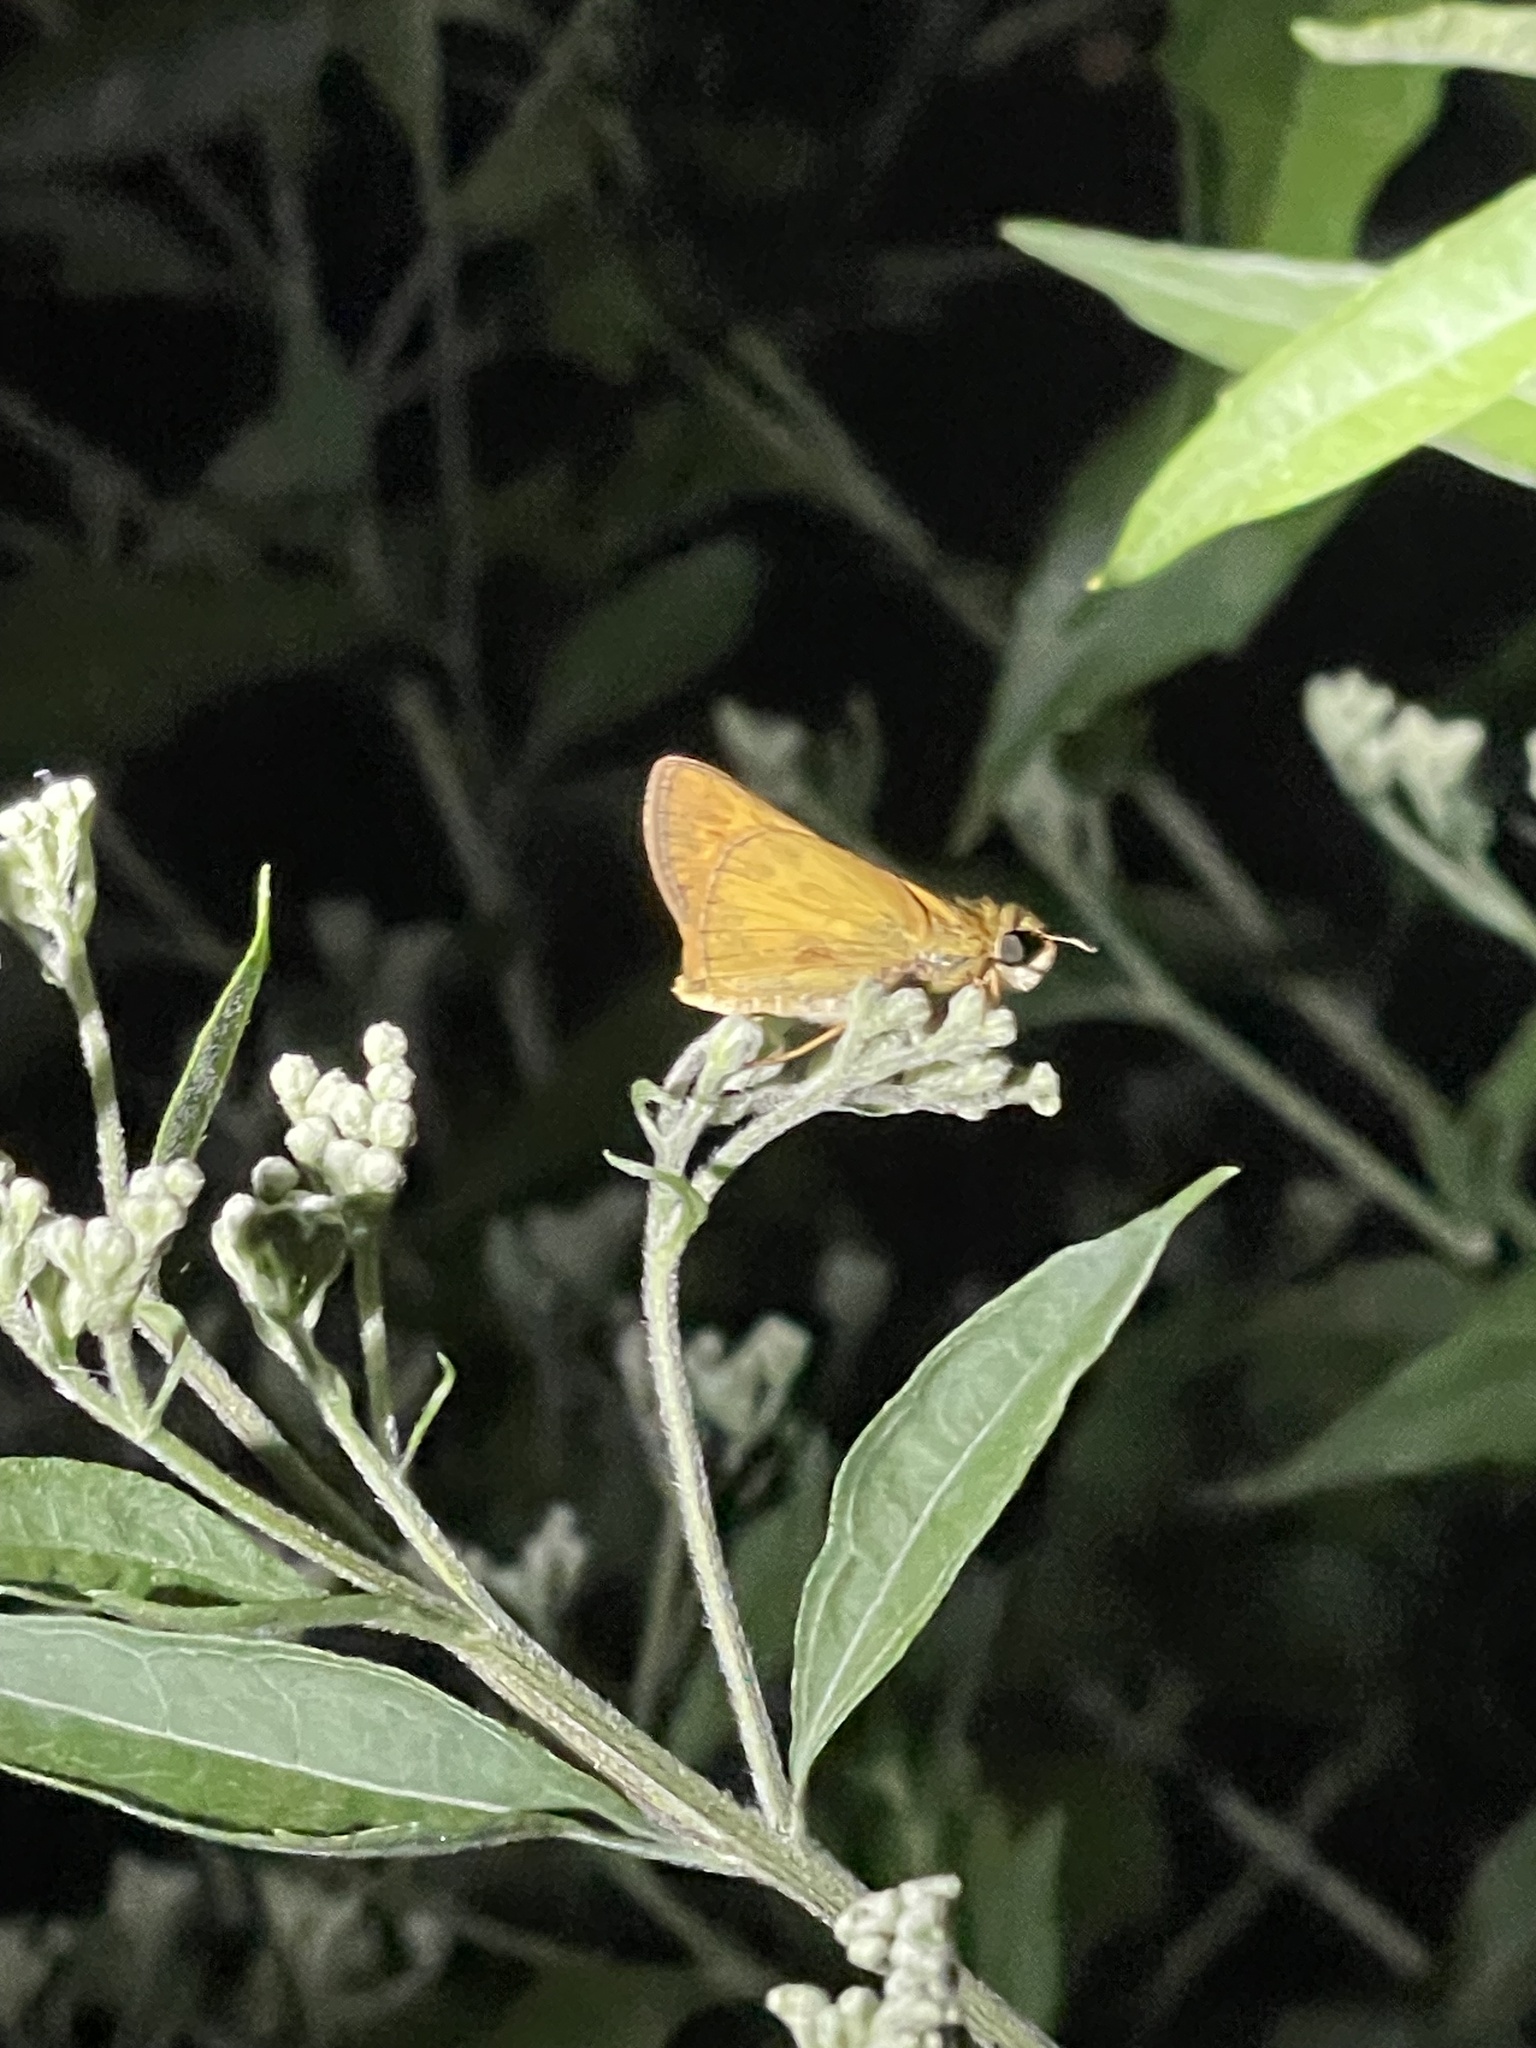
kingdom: Animalia
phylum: Arthropoda
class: Insecta
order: Lepidoptera
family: Hesperiidae
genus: Atalopedes
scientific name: Atalopedes
